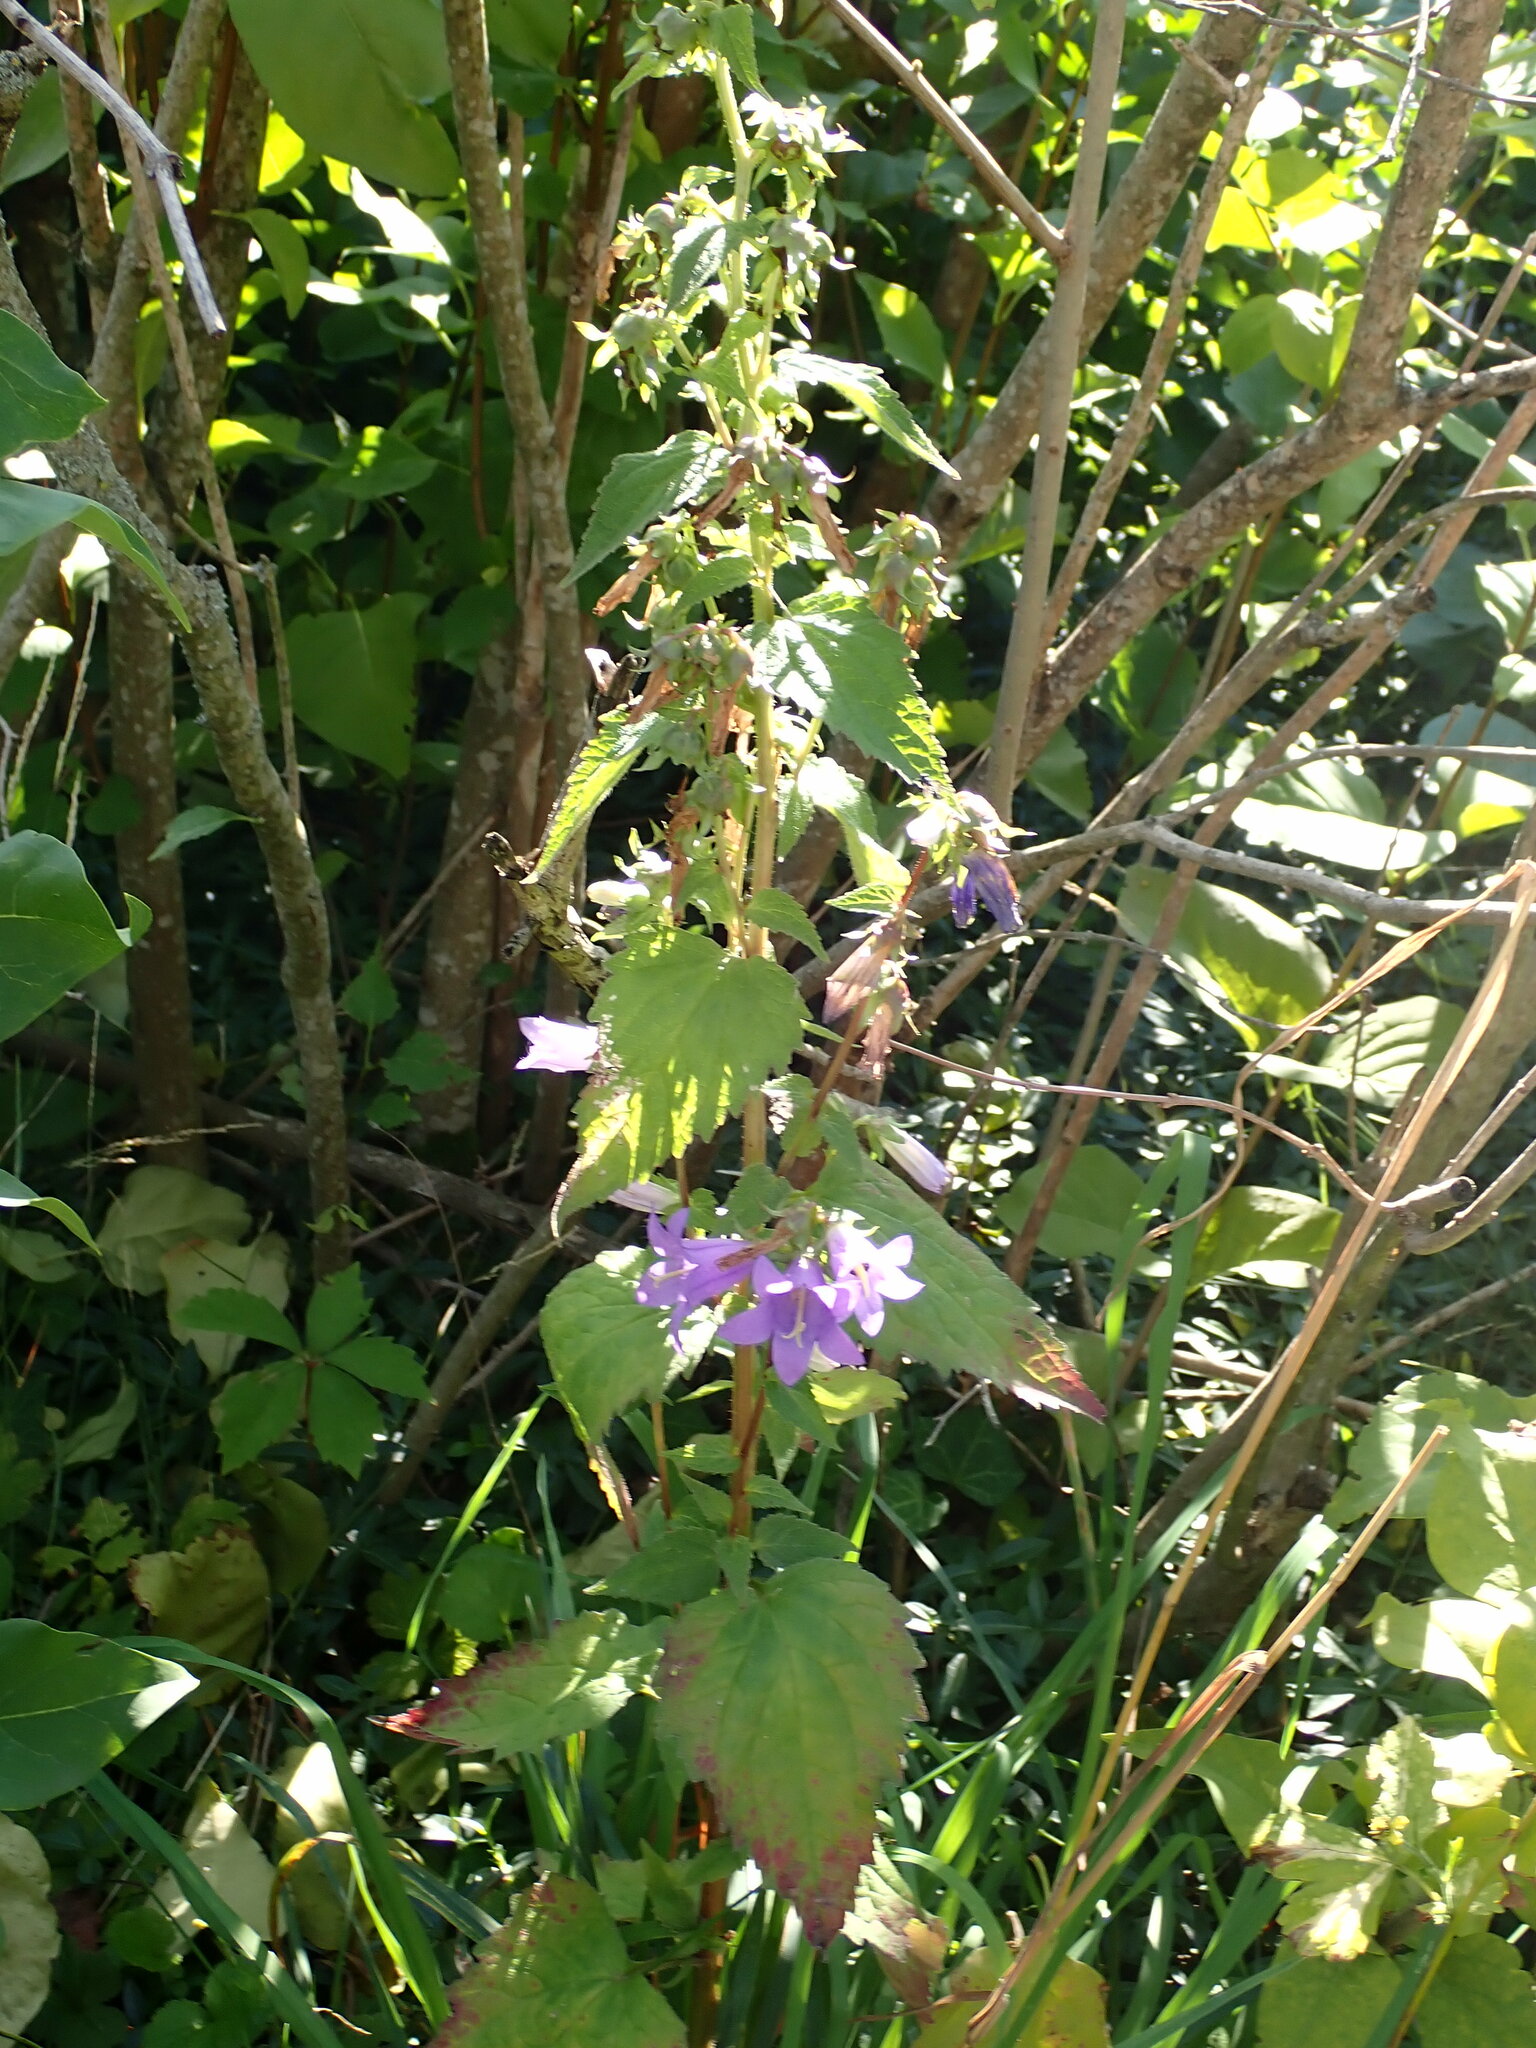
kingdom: Plantae
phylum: Tracheophyta
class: Magnoliopsida
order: Asterales
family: Campanulaceae
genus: Campanula
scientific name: Campanula trachelium
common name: Nettle-leaved bellflower
